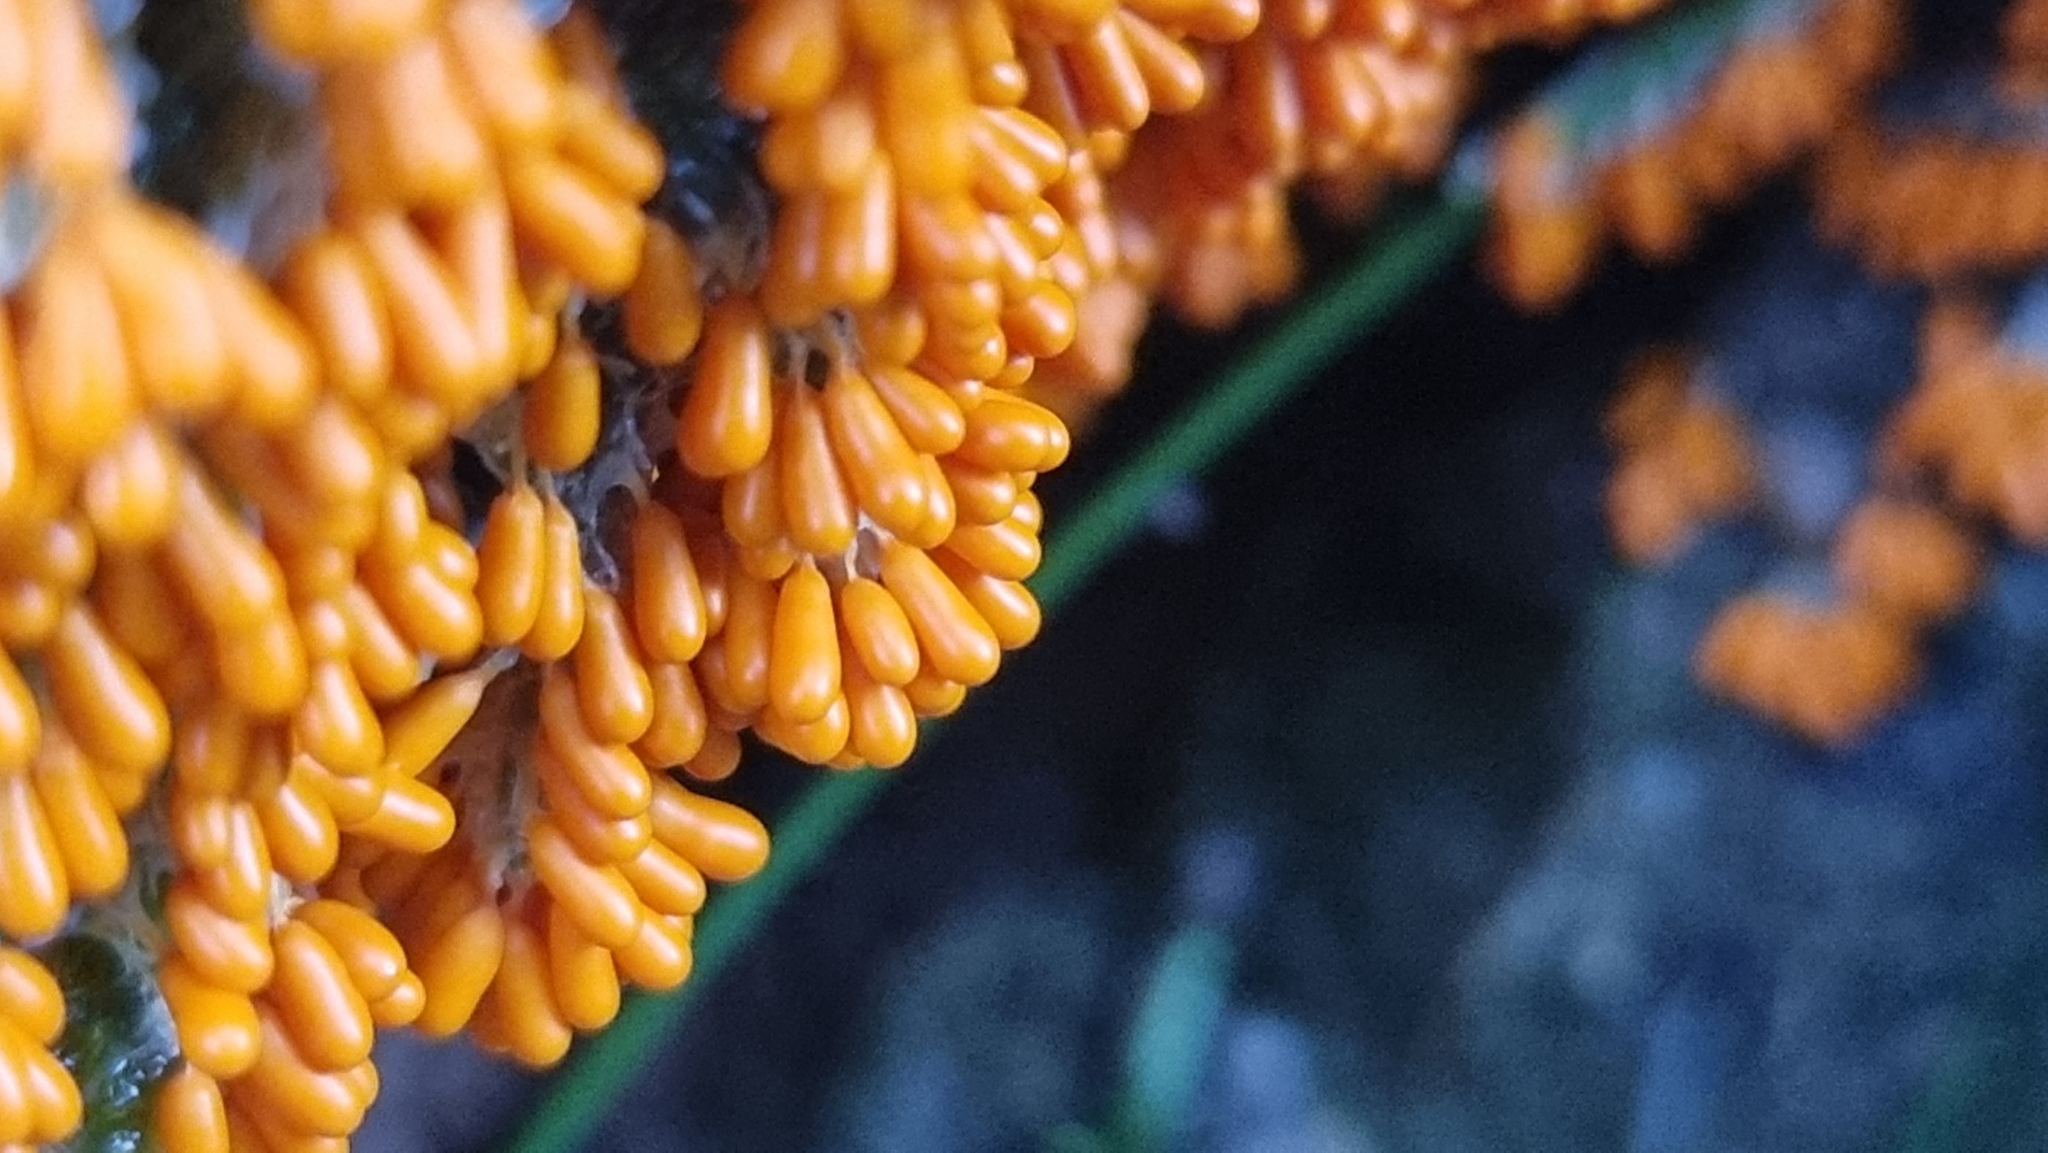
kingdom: Protozoa
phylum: Mycetozoa
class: Myxomycetes
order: Physarales
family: Physaraceae
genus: Leocarpus
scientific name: Leocarpus fragilis
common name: Insect-egg slime
